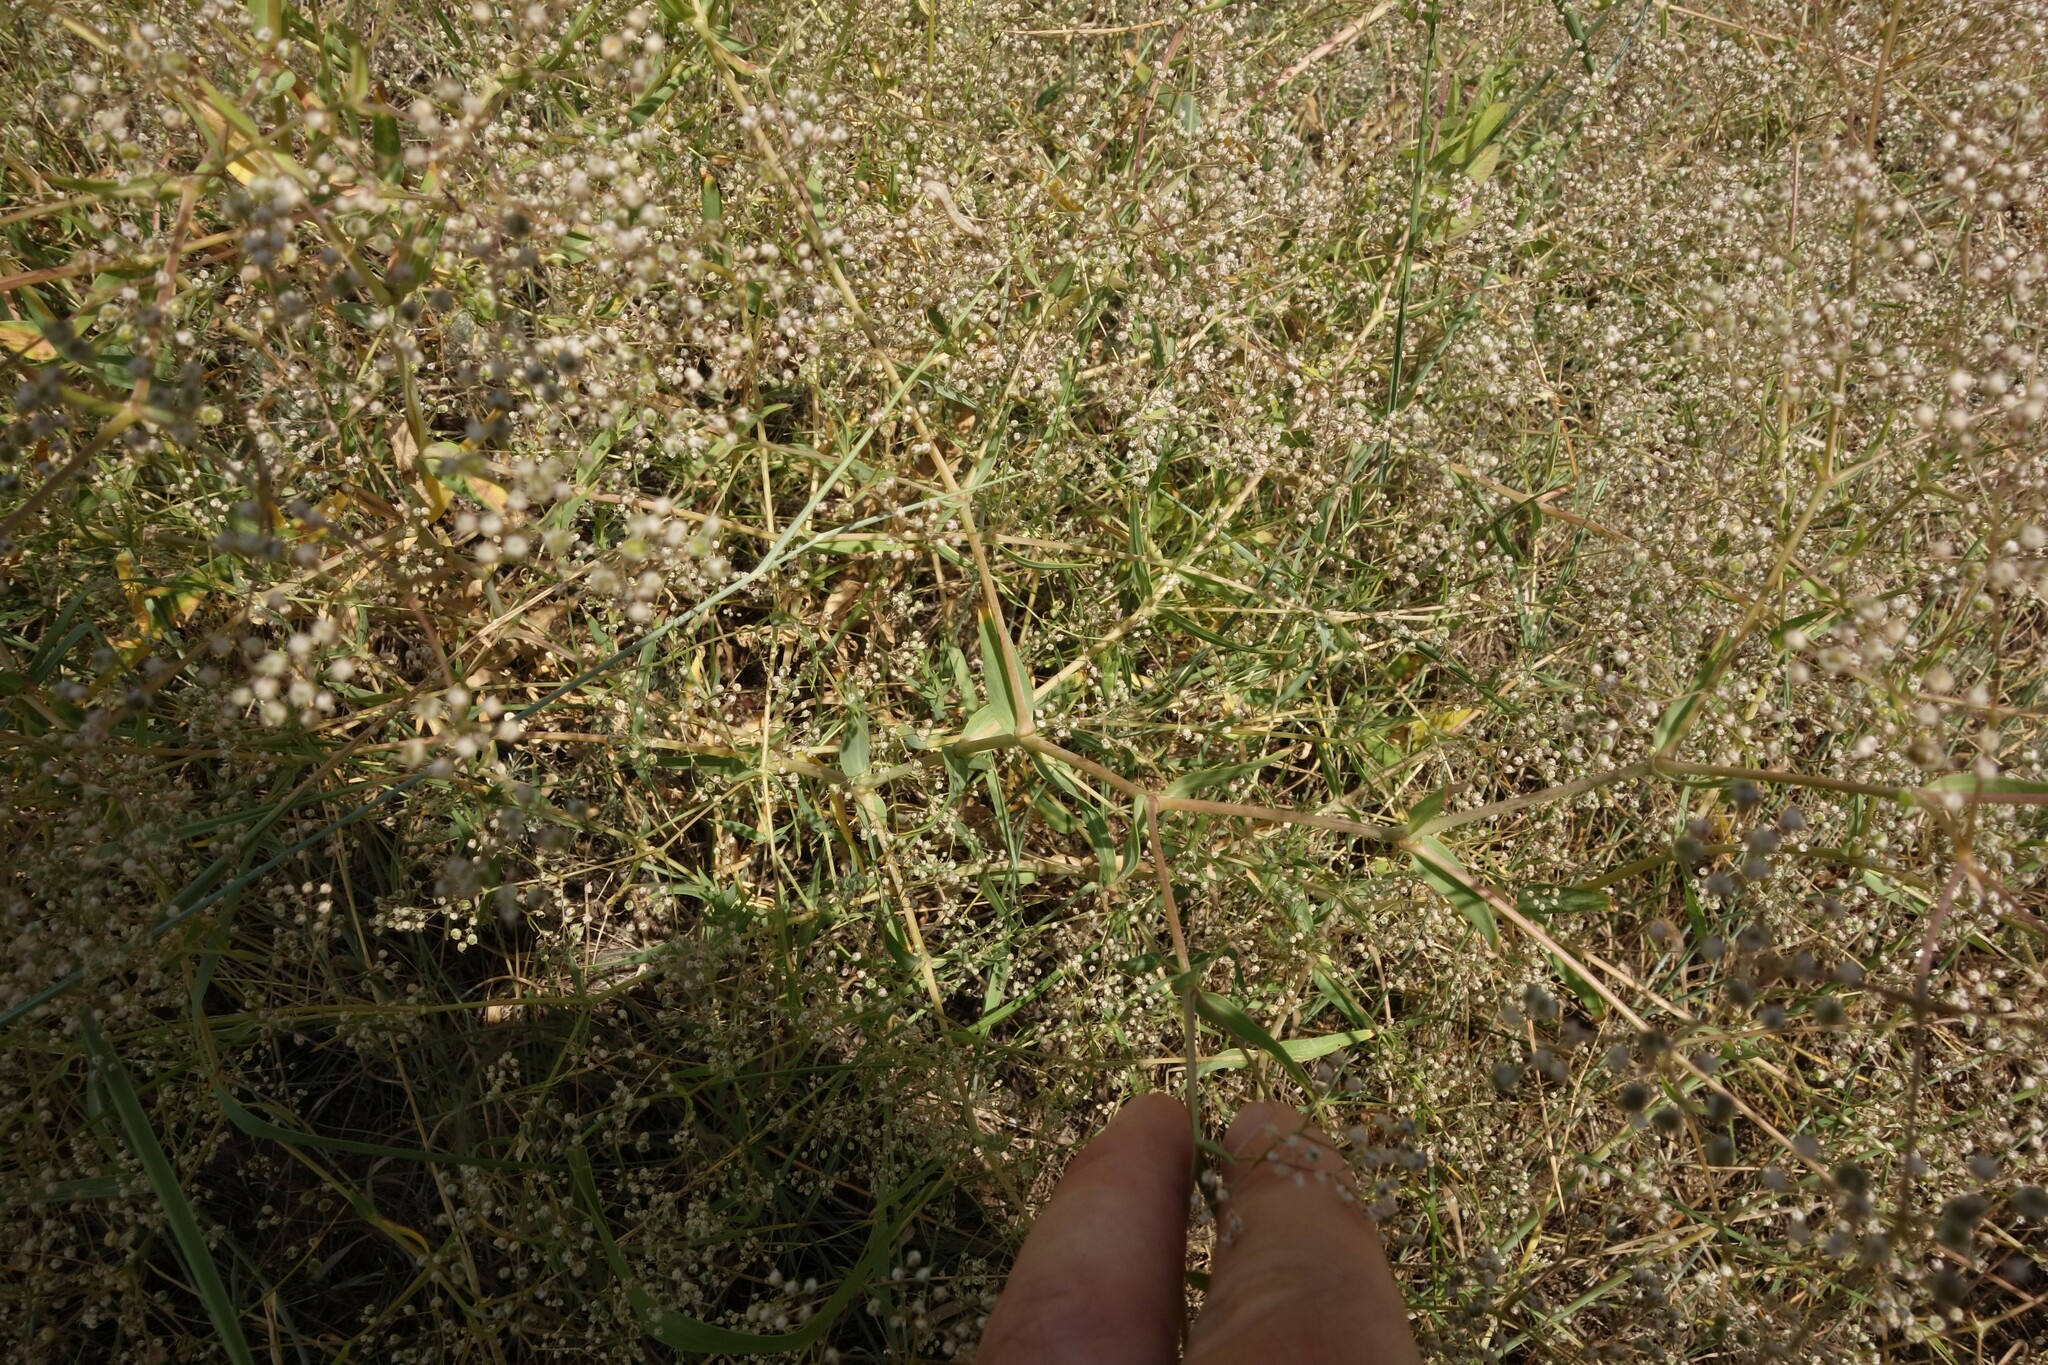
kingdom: Plantae
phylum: Tracheophyta
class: Magnoliopsida
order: Caryophyllales
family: Caryophyllaceae
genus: Gypsophila
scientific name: Gypsophila paniculata
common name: Baby's-breath
